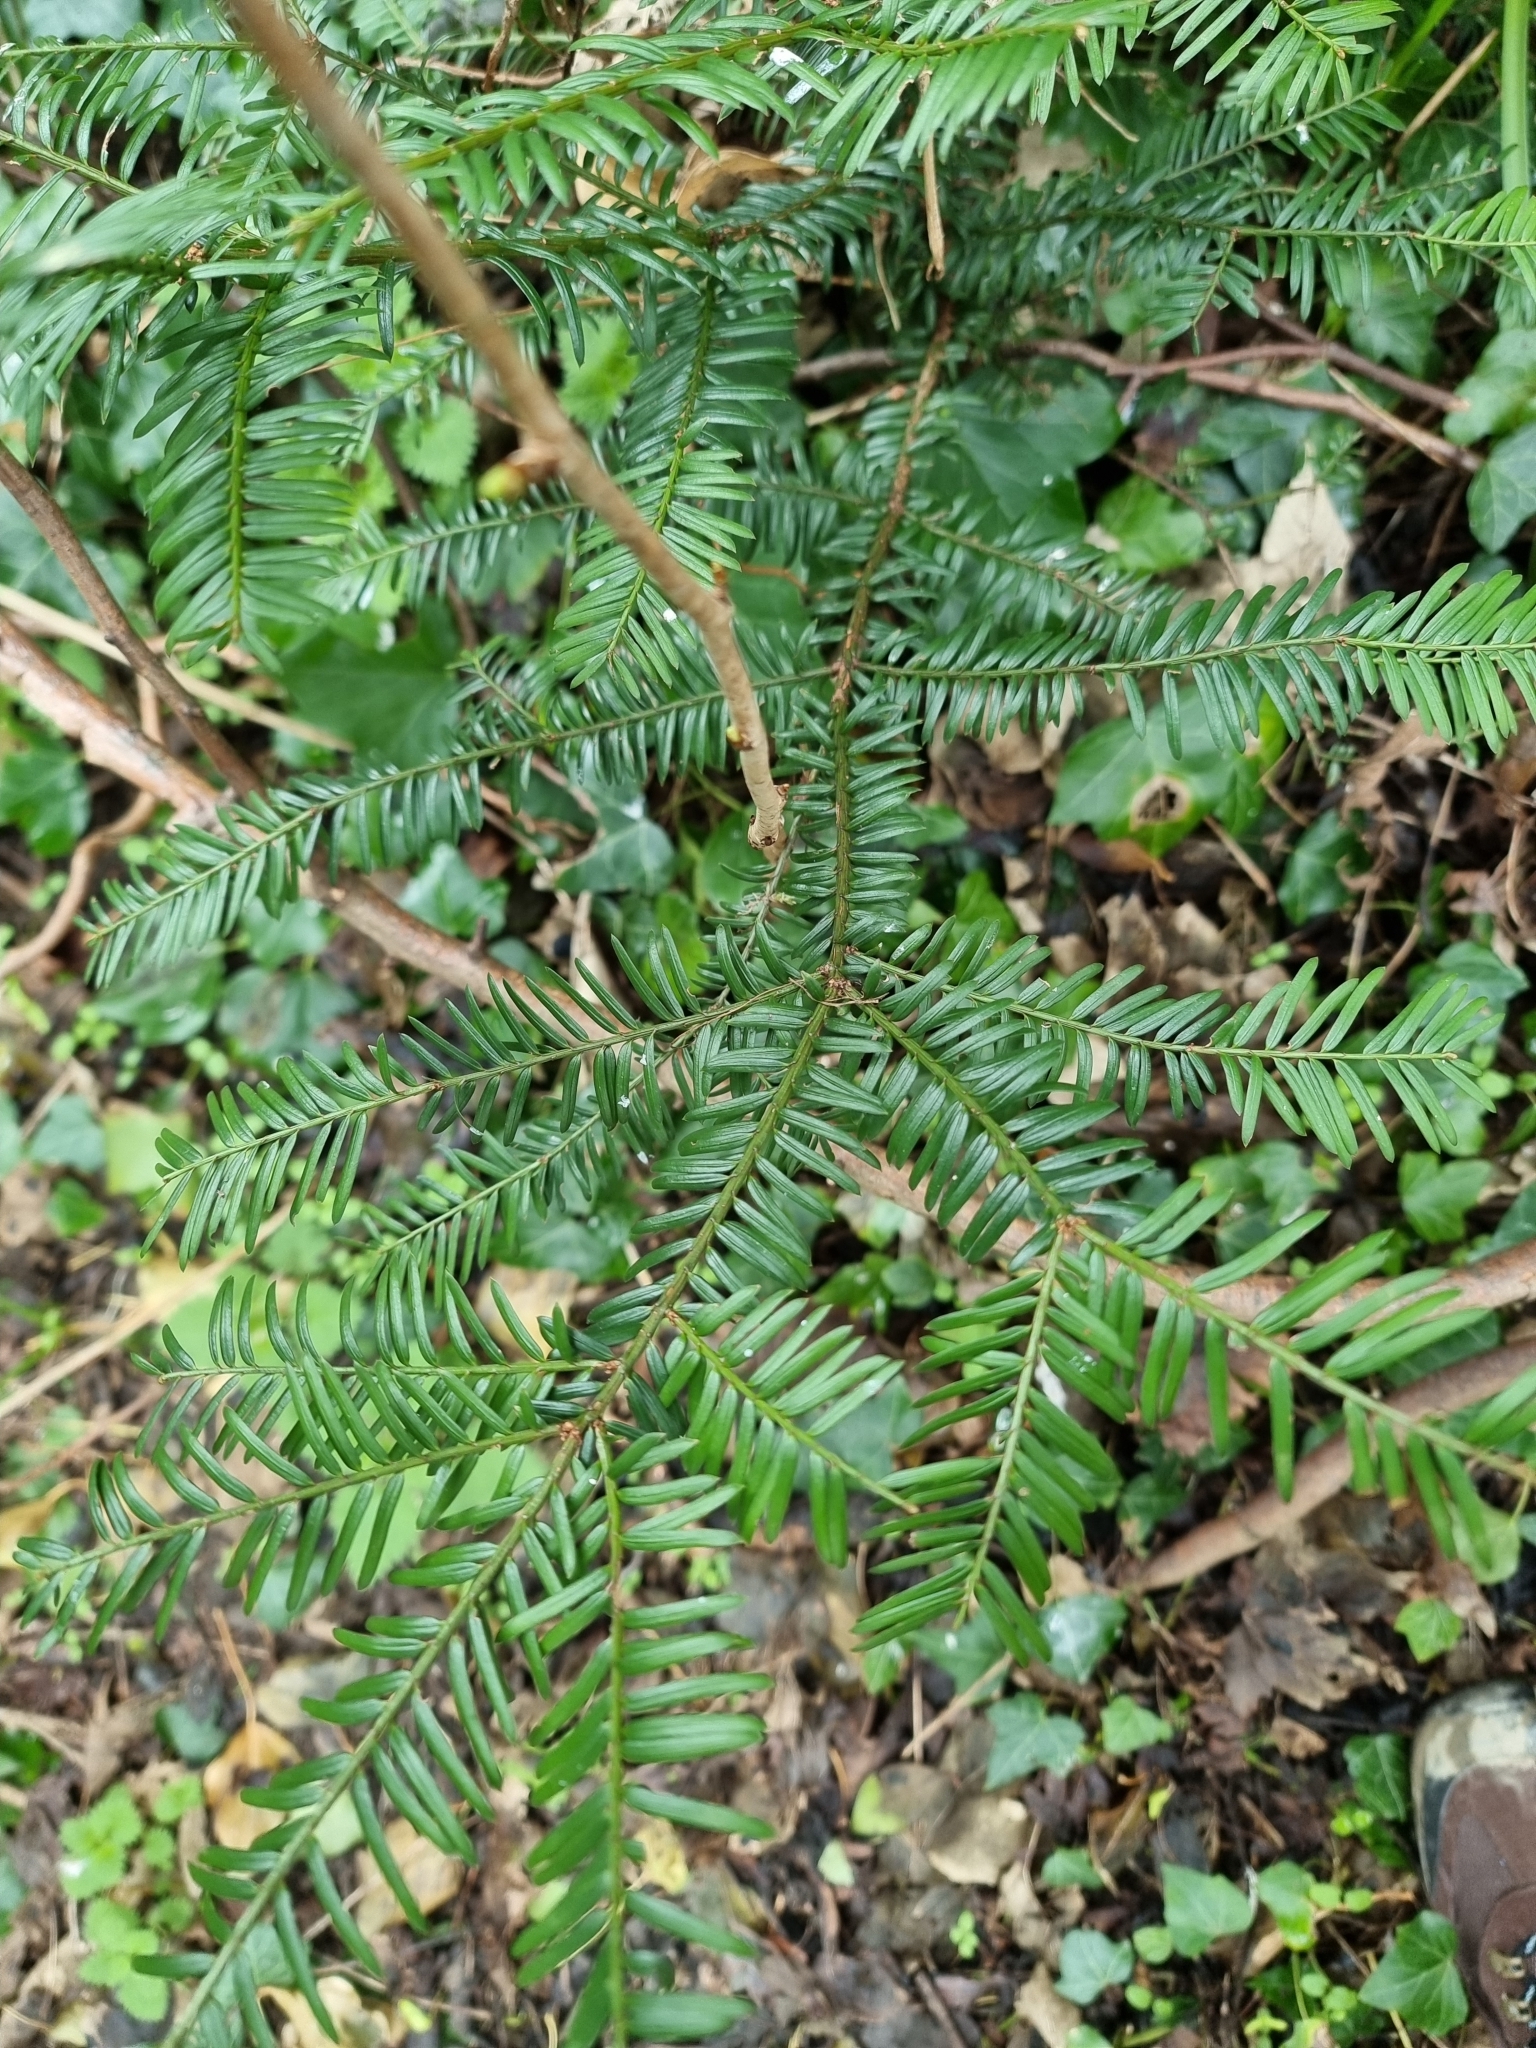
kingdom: Plantae
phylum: Tracheophyta
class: Pinopsida
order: Pinales
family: Taxaceae
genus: Taxus
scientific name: Taxus baccata
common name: Yew
